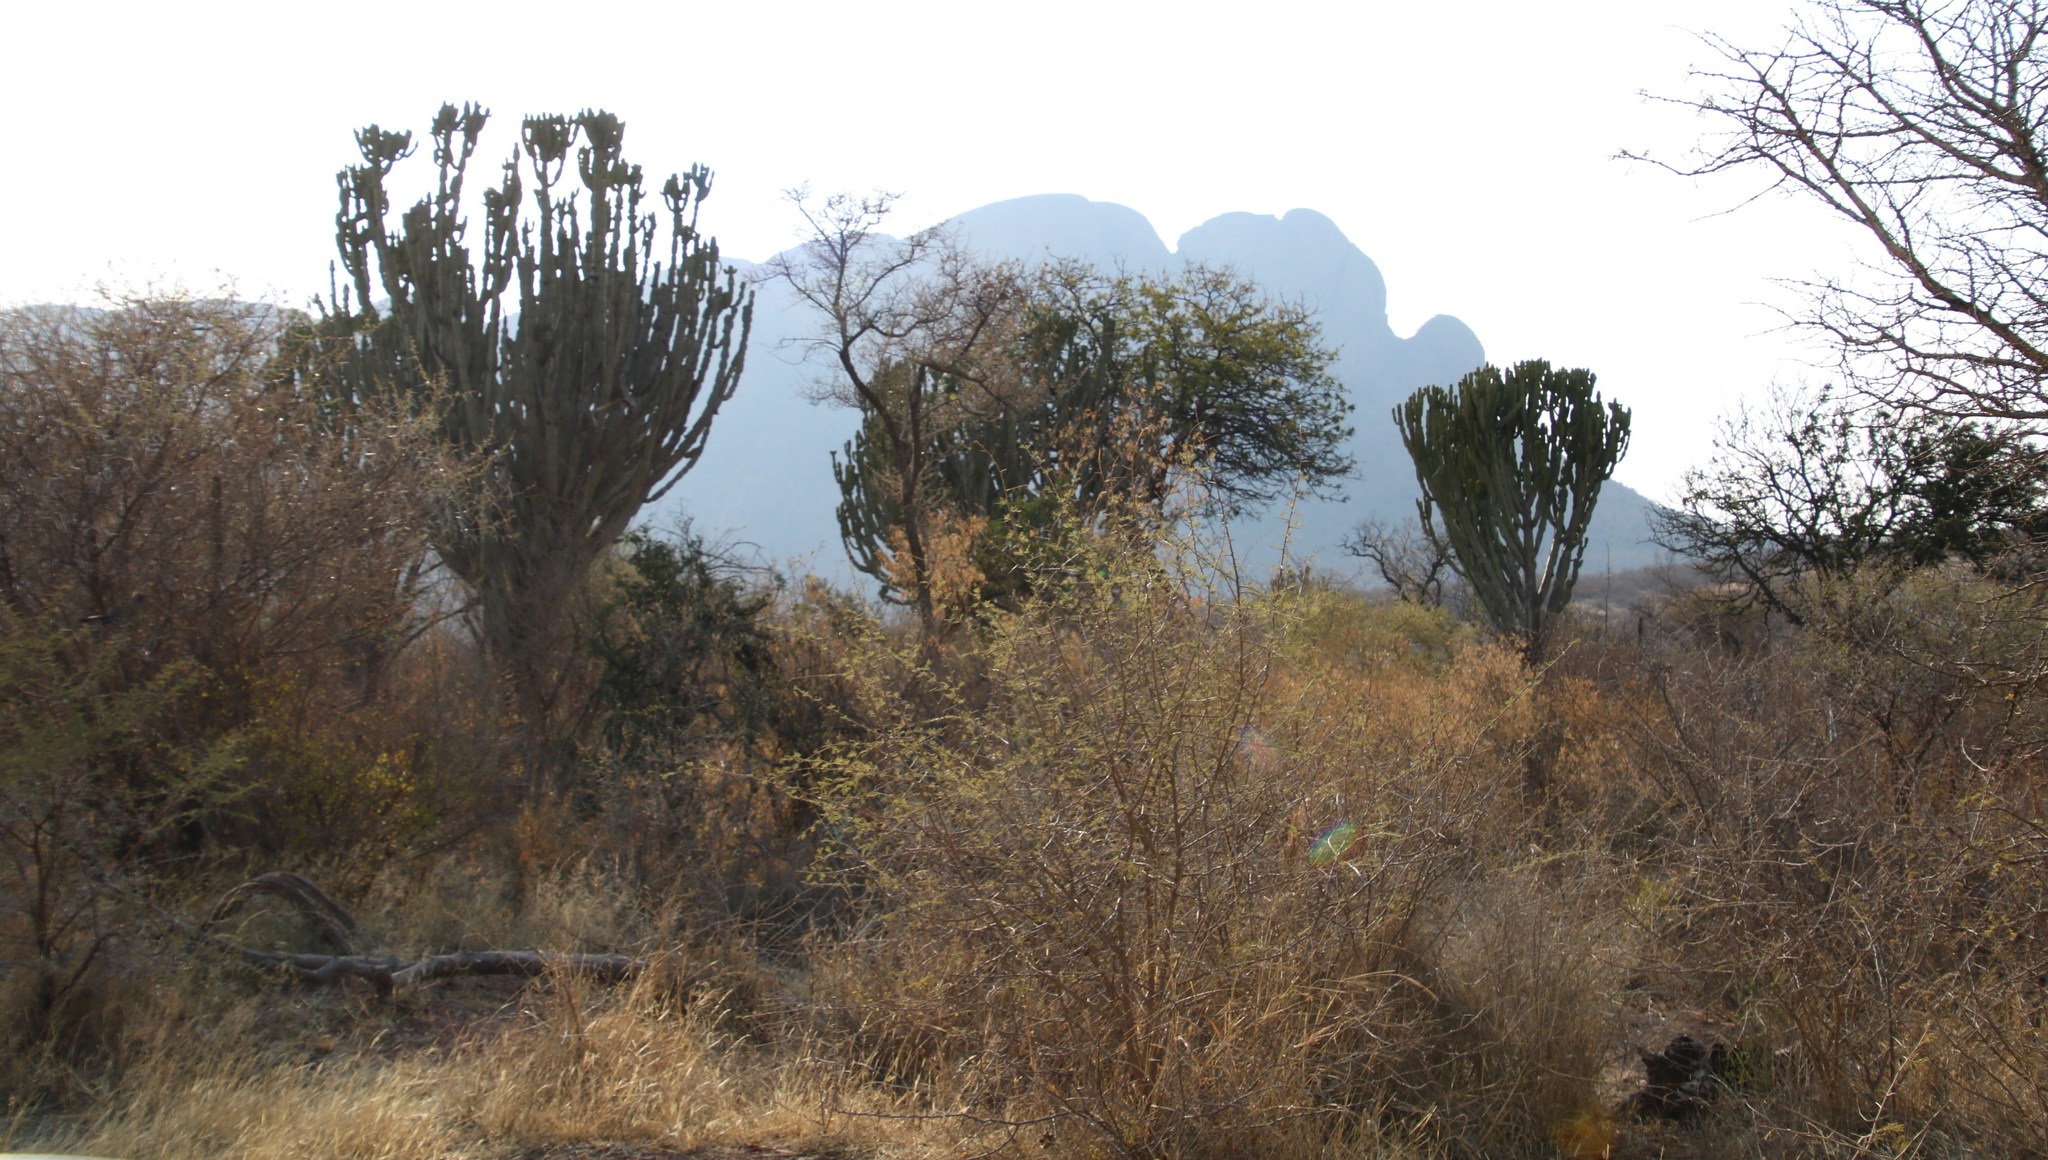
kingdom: Plantae
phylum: Tracheophyta
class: Magnoliopsida
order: Malpighiales
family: Euphorbiaceae
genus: Euphorbia
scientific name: Euphorbia ingens
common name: Cactus spurge
